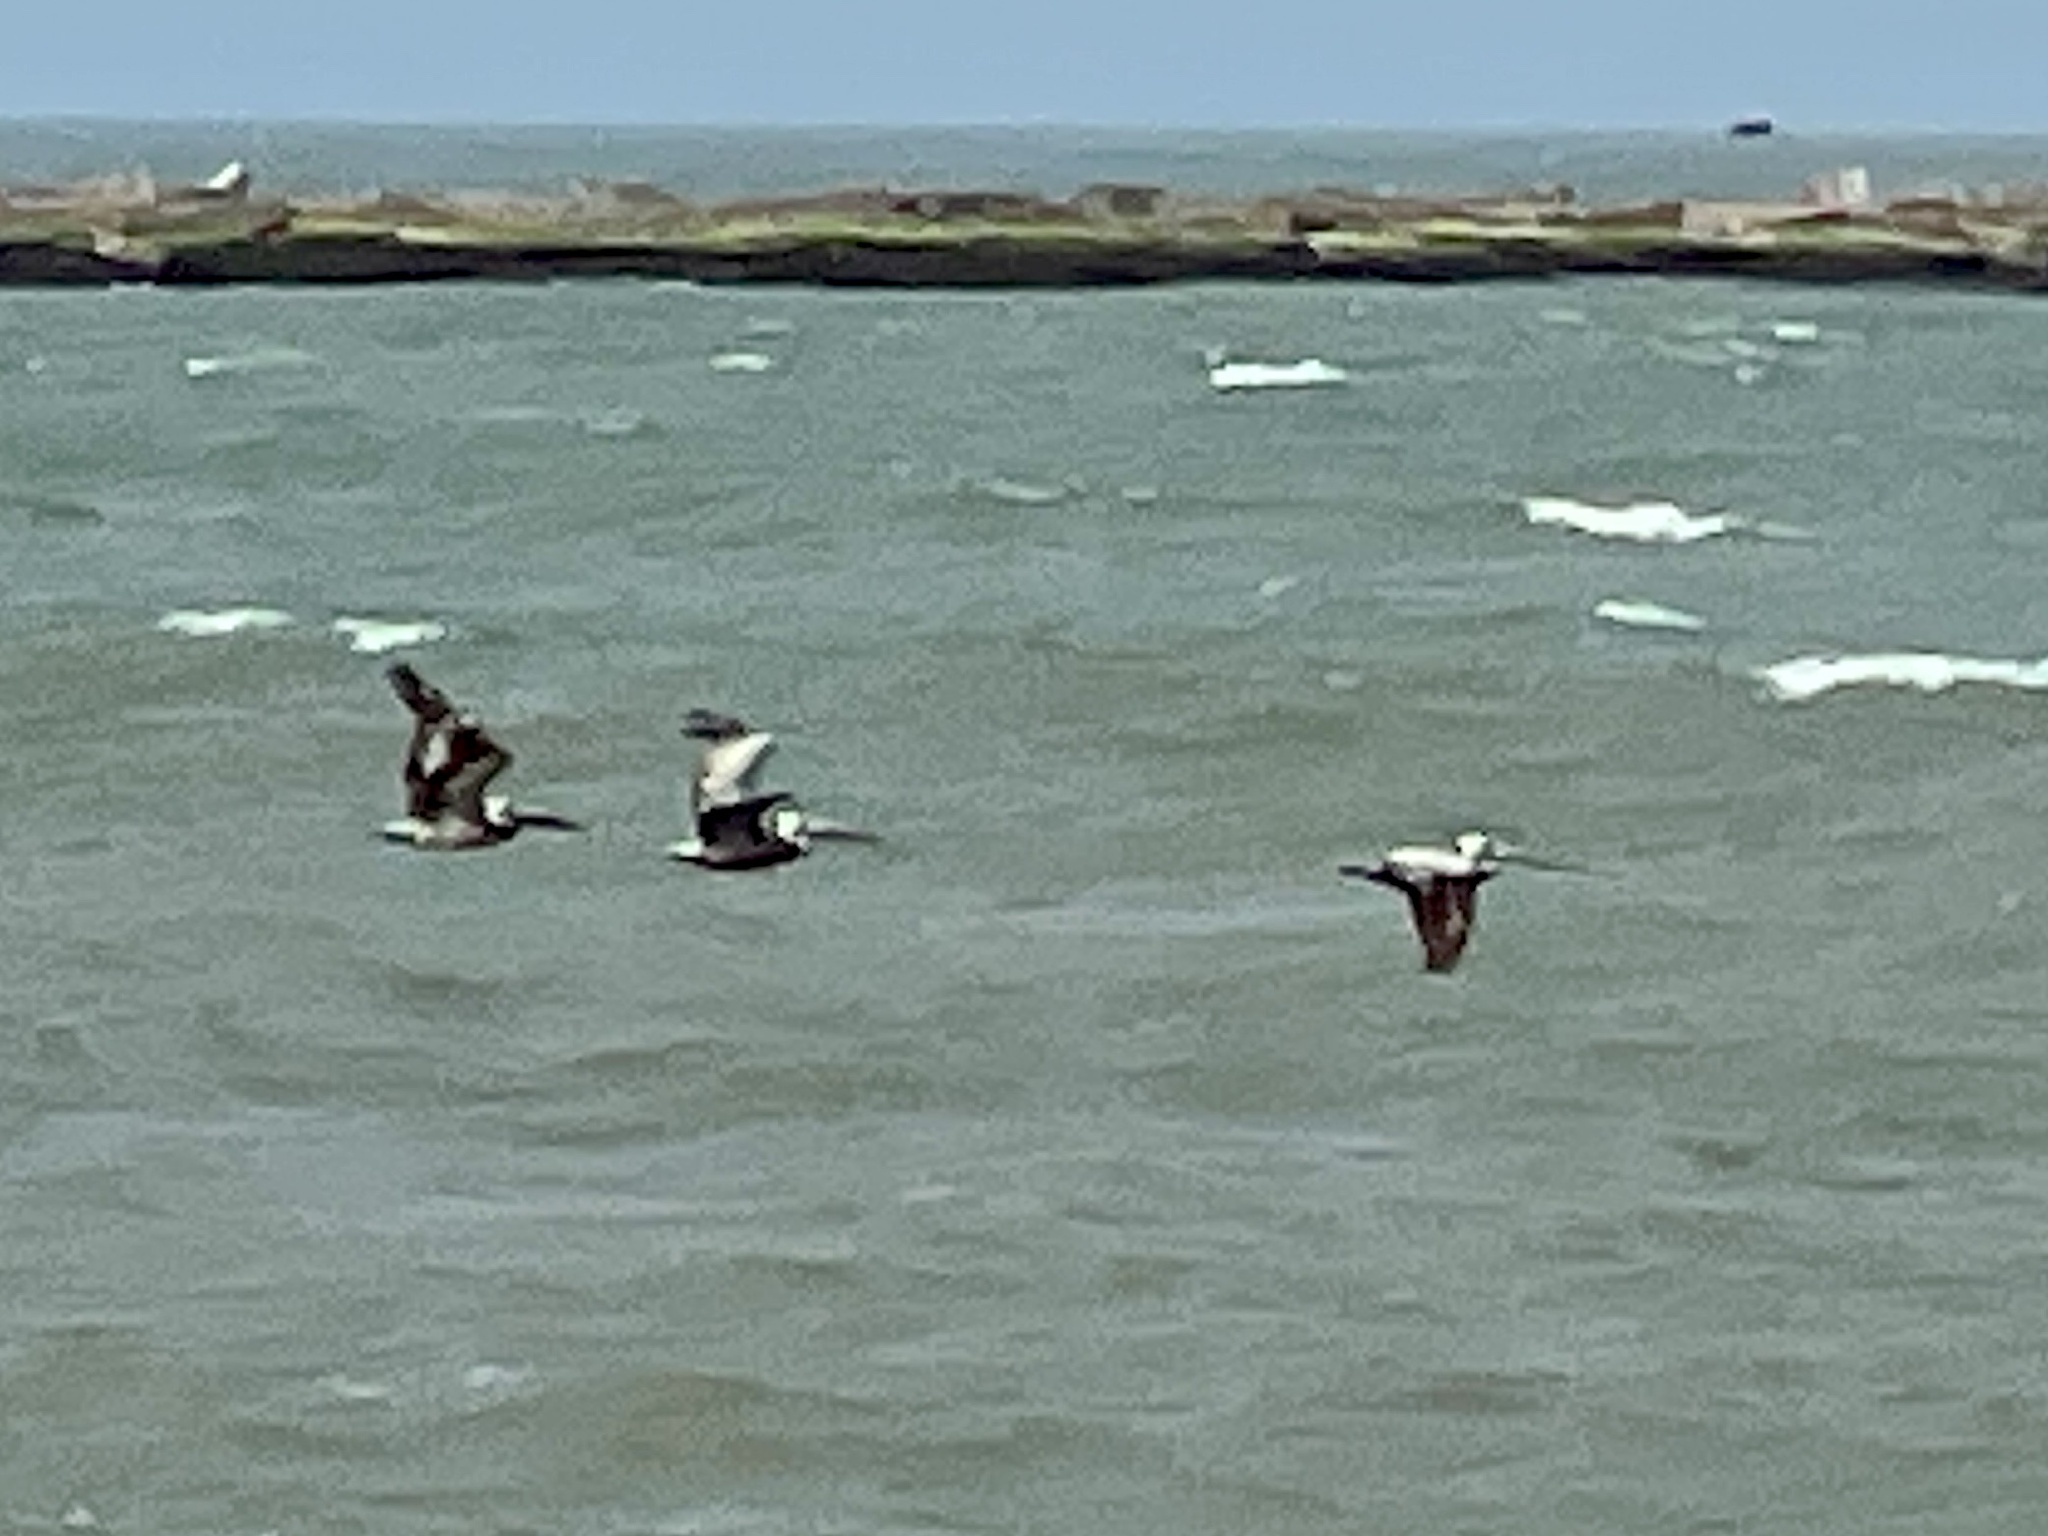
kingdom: Animalia
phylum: Chordata
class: Aves
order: Pelecaniformes
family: Pelecanidae
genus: Pelecanus
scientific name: Pelecanus occidentalis
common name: Brown pelican
